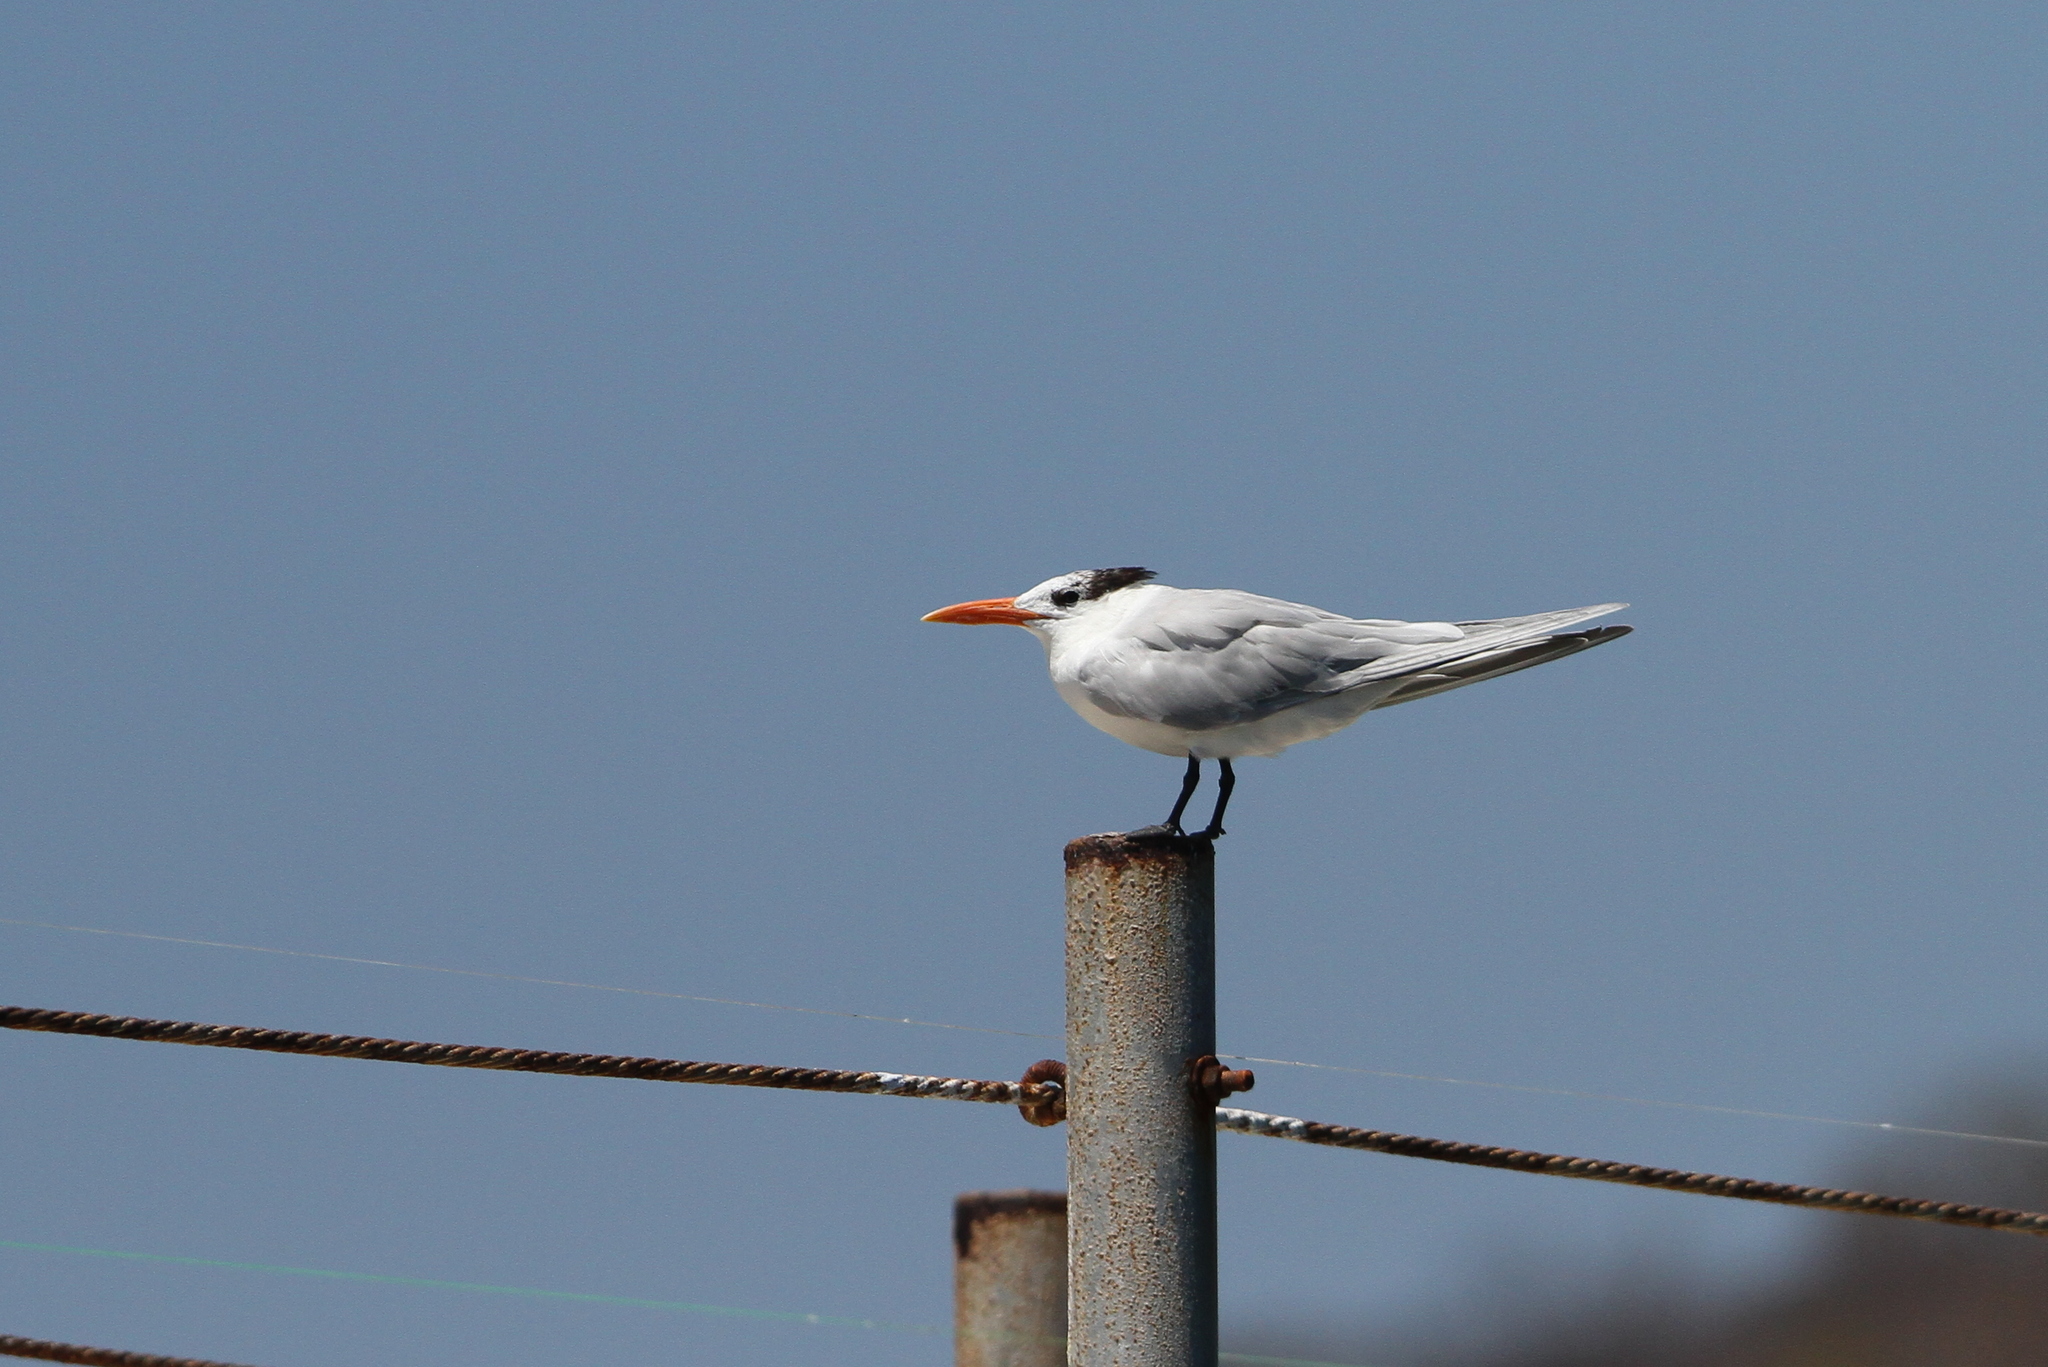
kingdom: Animalia
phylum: Chordata
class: Aves
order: Charadriiformes
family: Laridae
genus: Thalasseus
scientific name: Thalasseus maximus
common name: Royal tern
